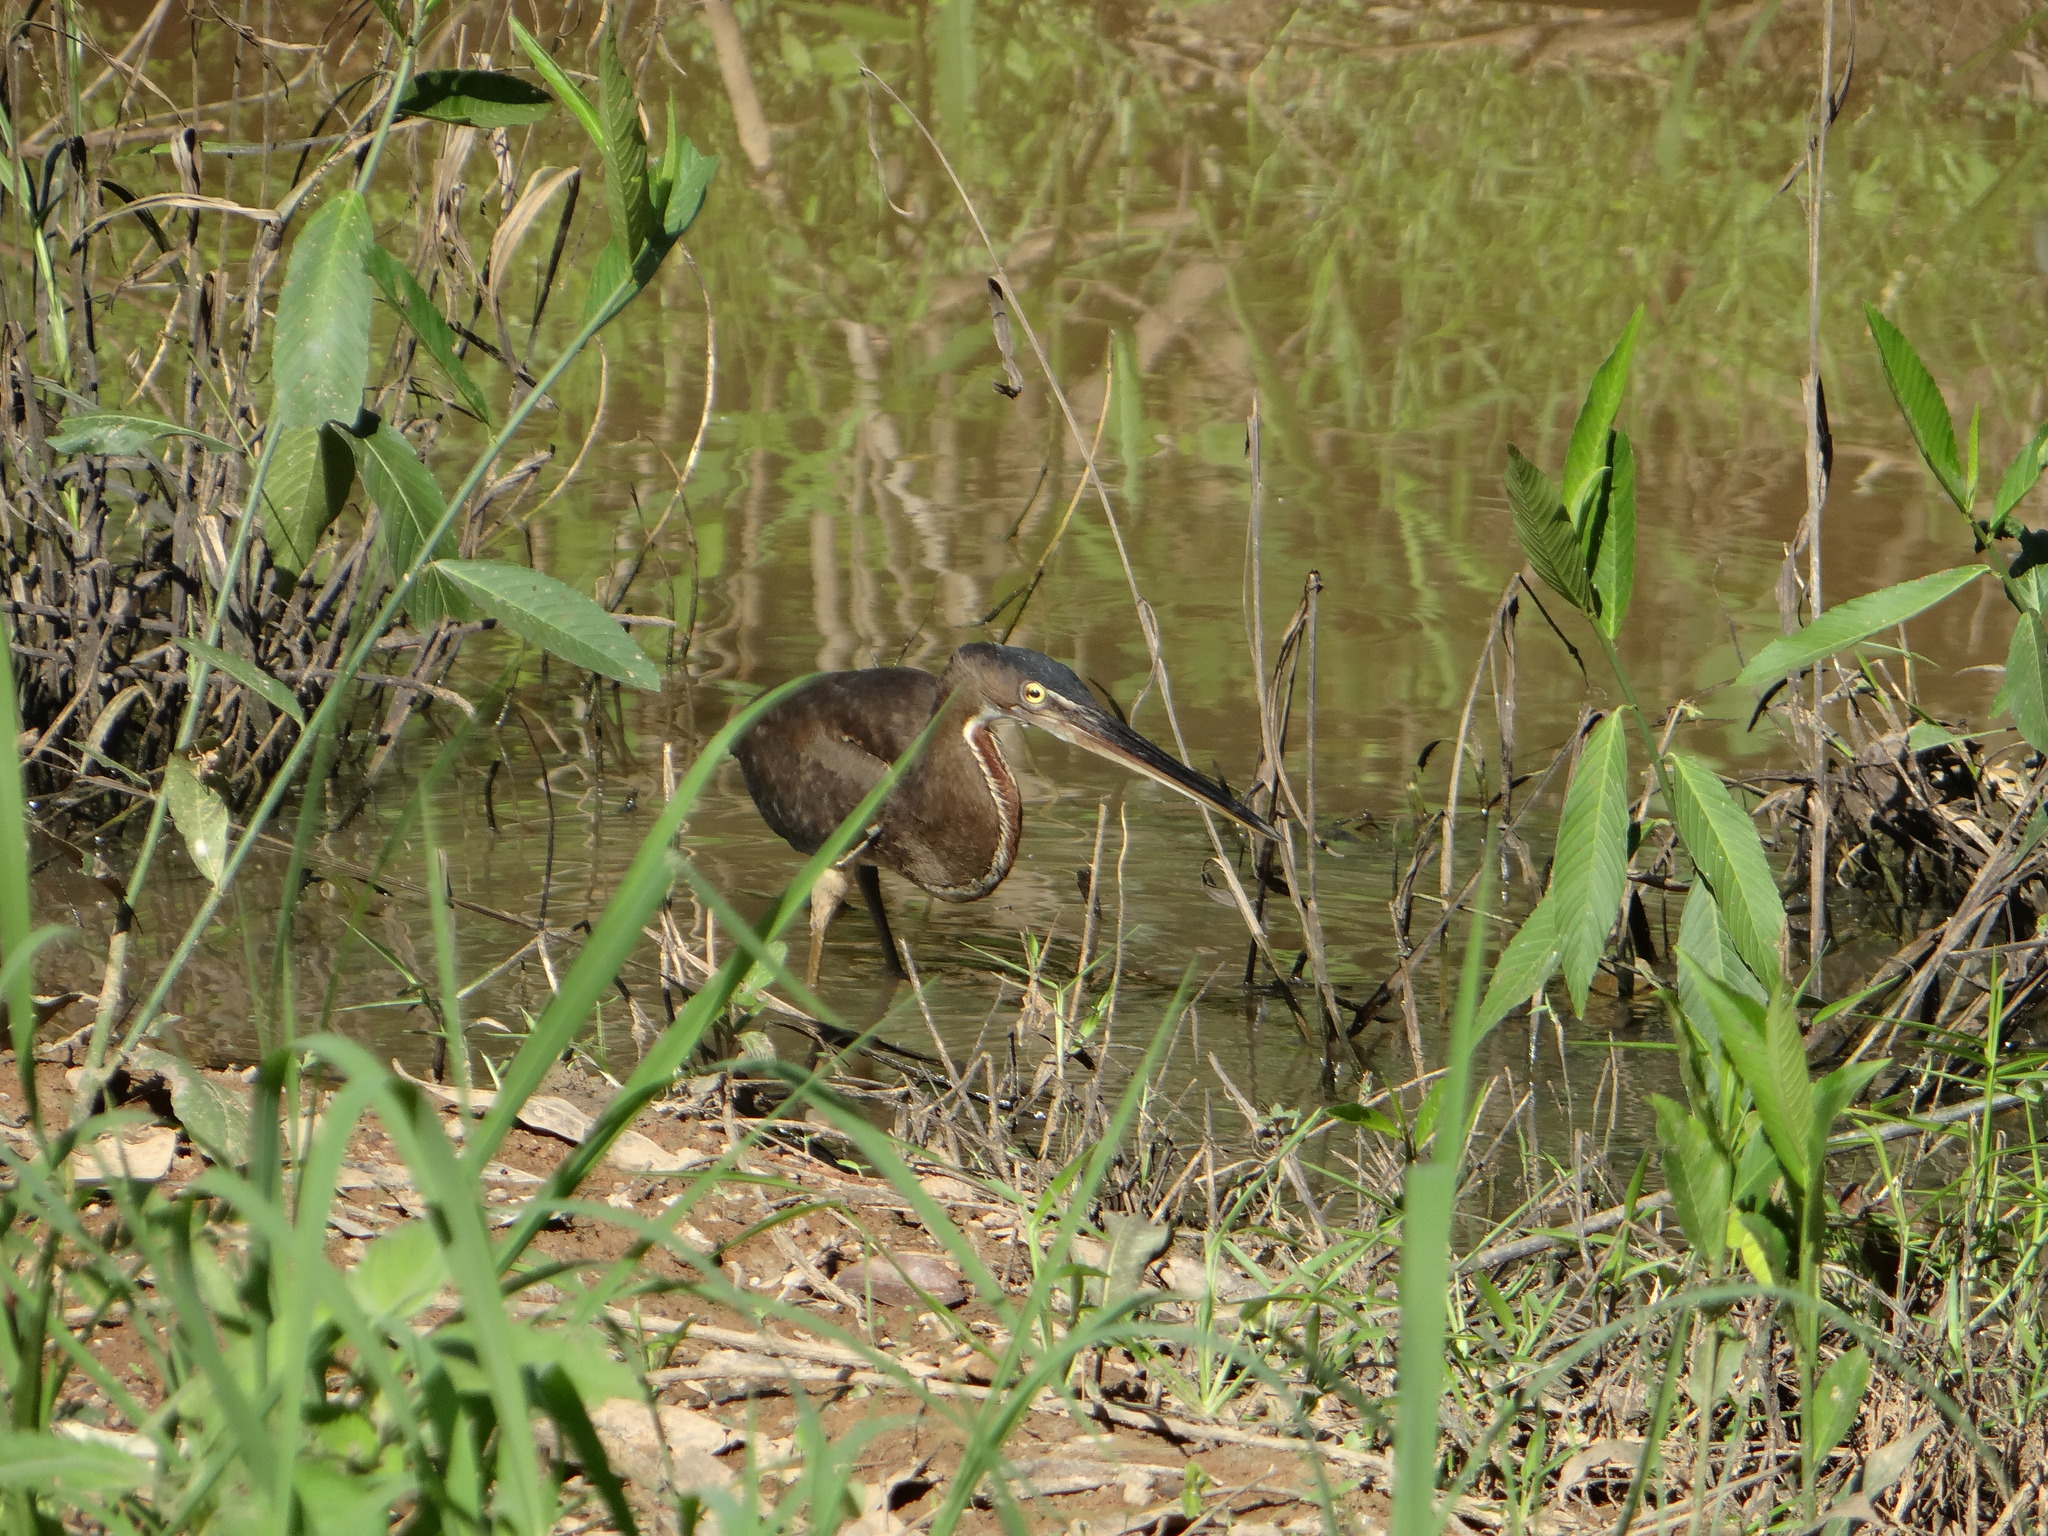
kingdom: Animalia
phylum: Chordata
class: Aves
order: Pelecaniformes
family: Ardeidae
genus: Agamia
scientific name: Agamia agami
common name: Agami heron
